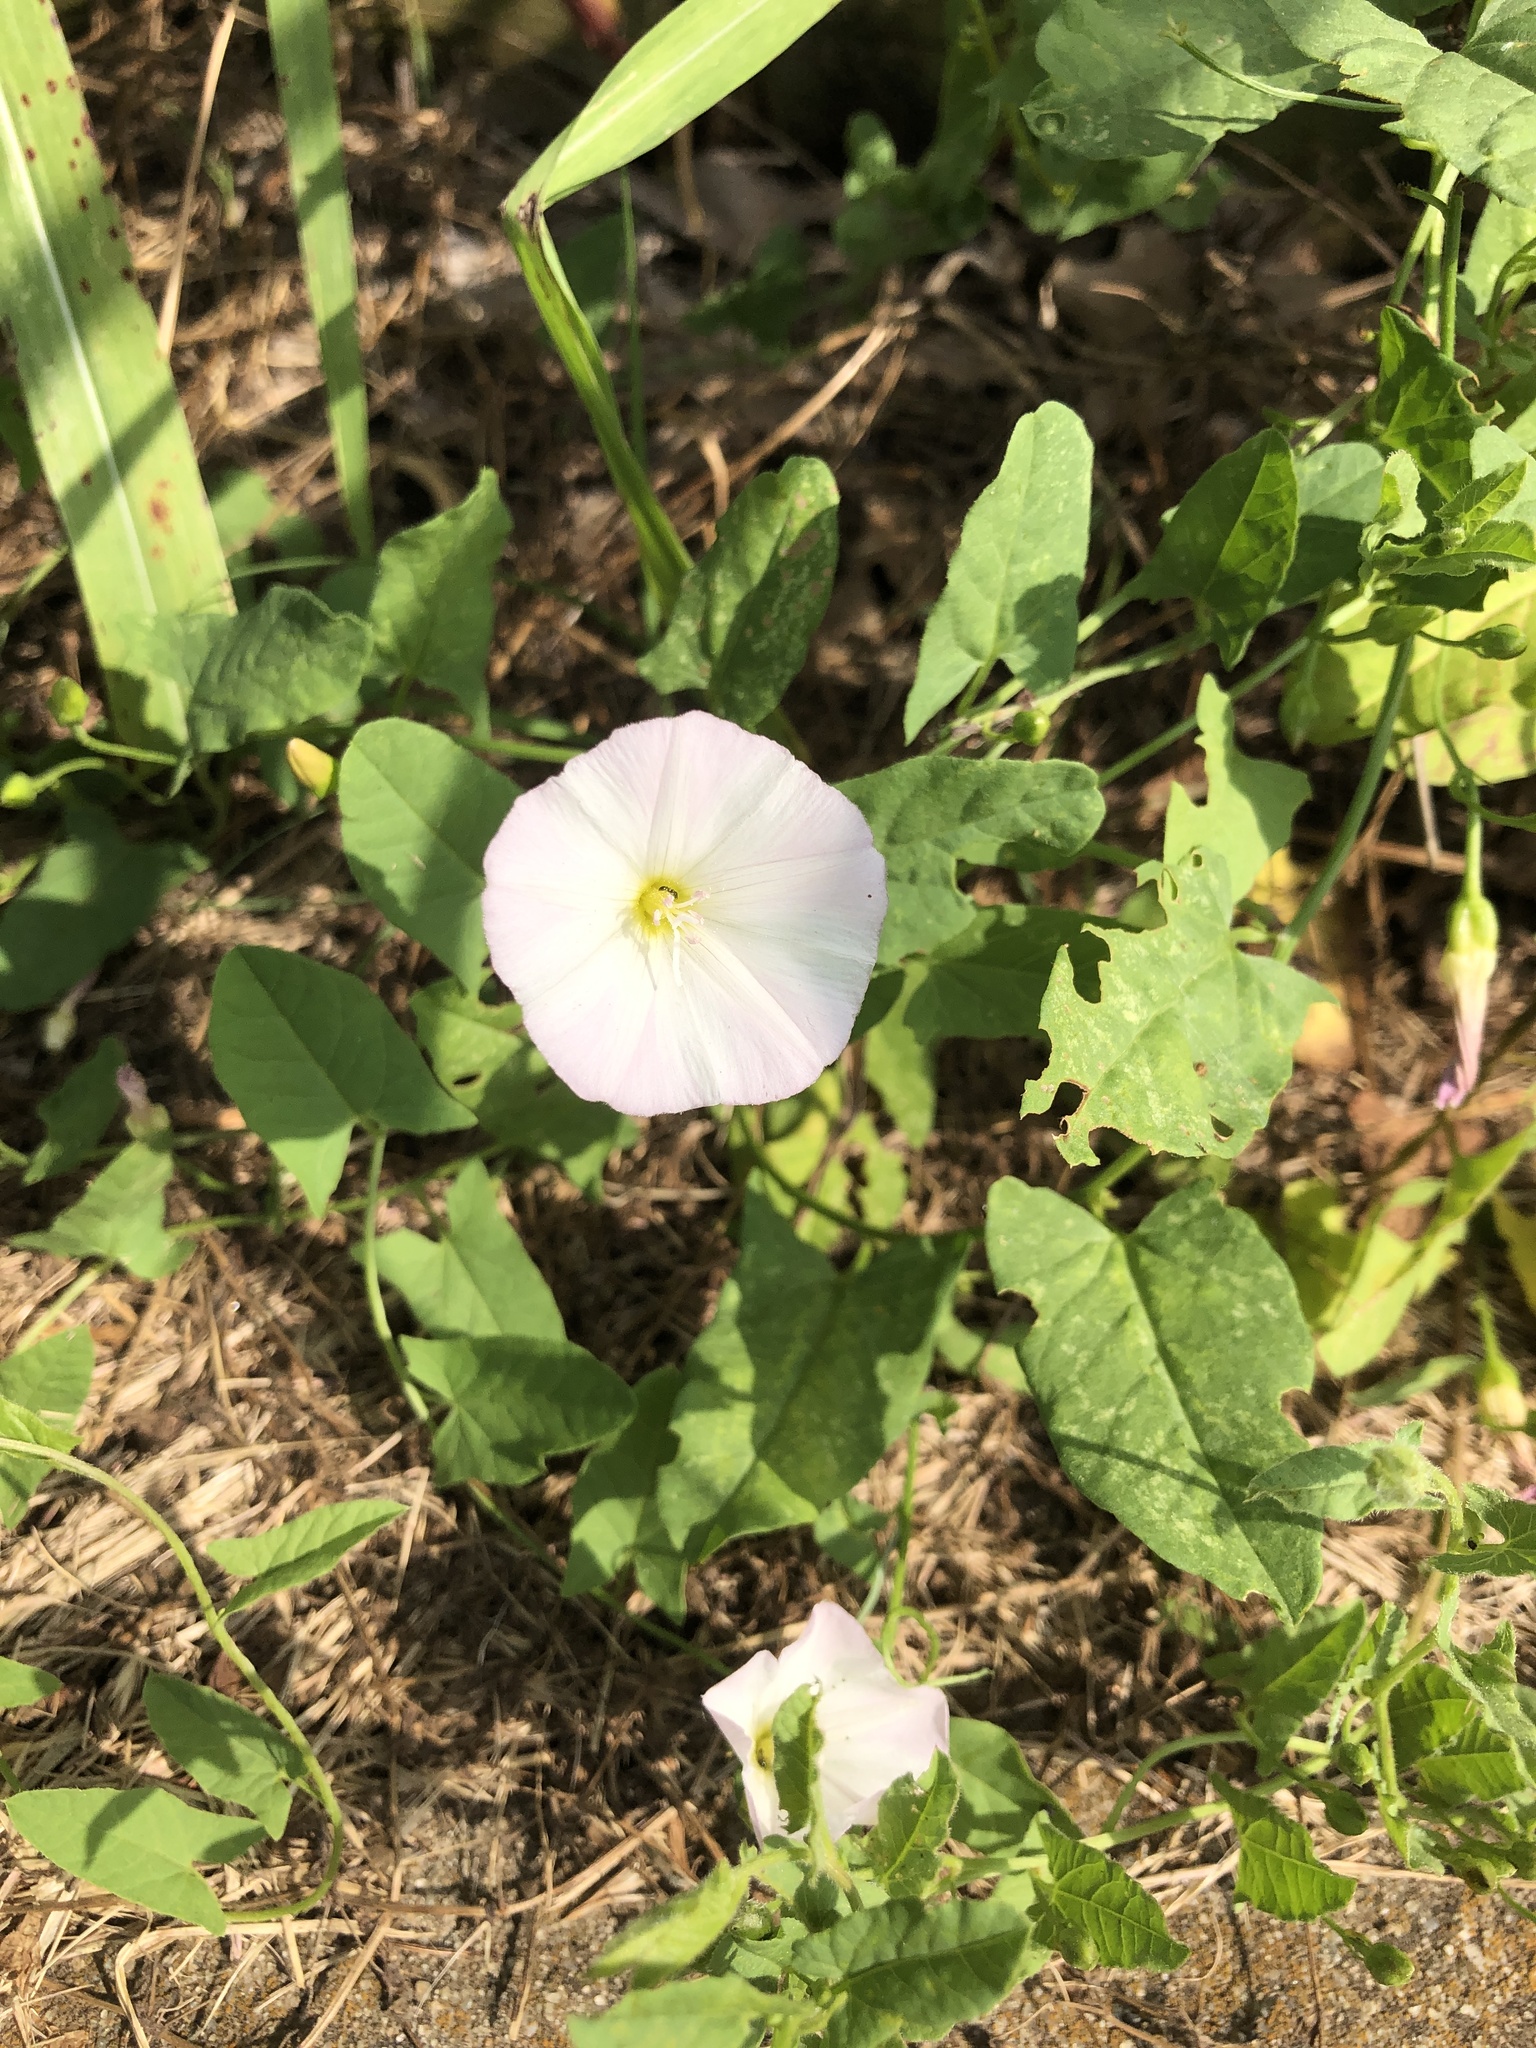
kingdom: Plantae
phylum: Tracheophyta
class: Magnoliopsida
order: Solanales
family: Convolvulaceae
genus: Convolvulus
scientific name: Convolvulus arvensis
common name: Field bindweed
